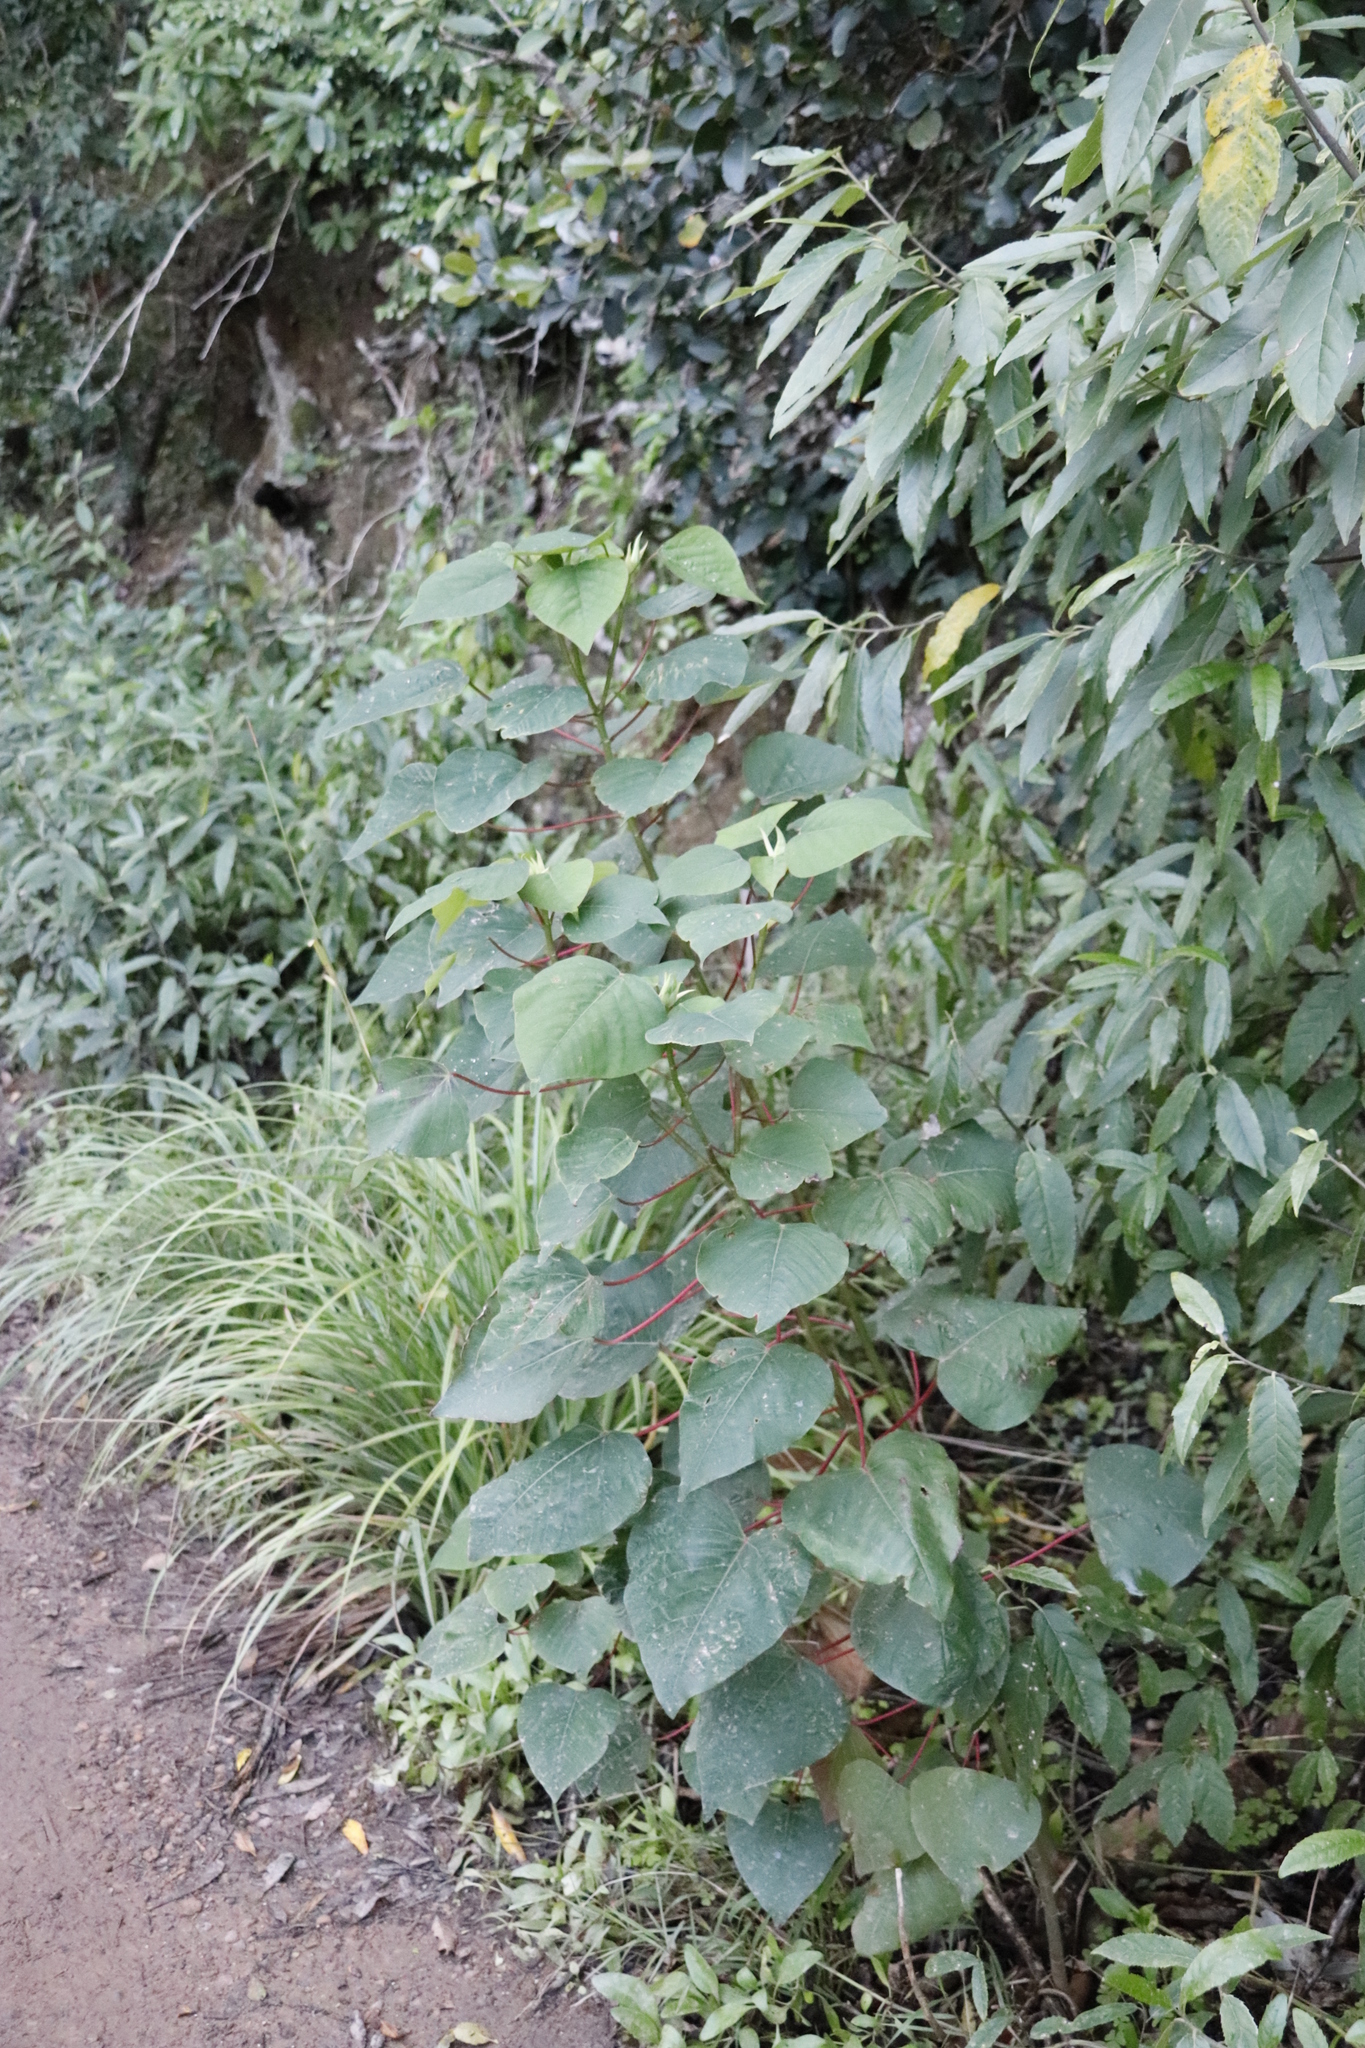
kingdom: Plantae
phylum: Tracheophyta
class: Magnoliopsida
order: Malpighiales
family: Euphorbiaceae
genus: Homalanthus
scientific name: Homalanthus populifolius
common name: Queensland poplar
